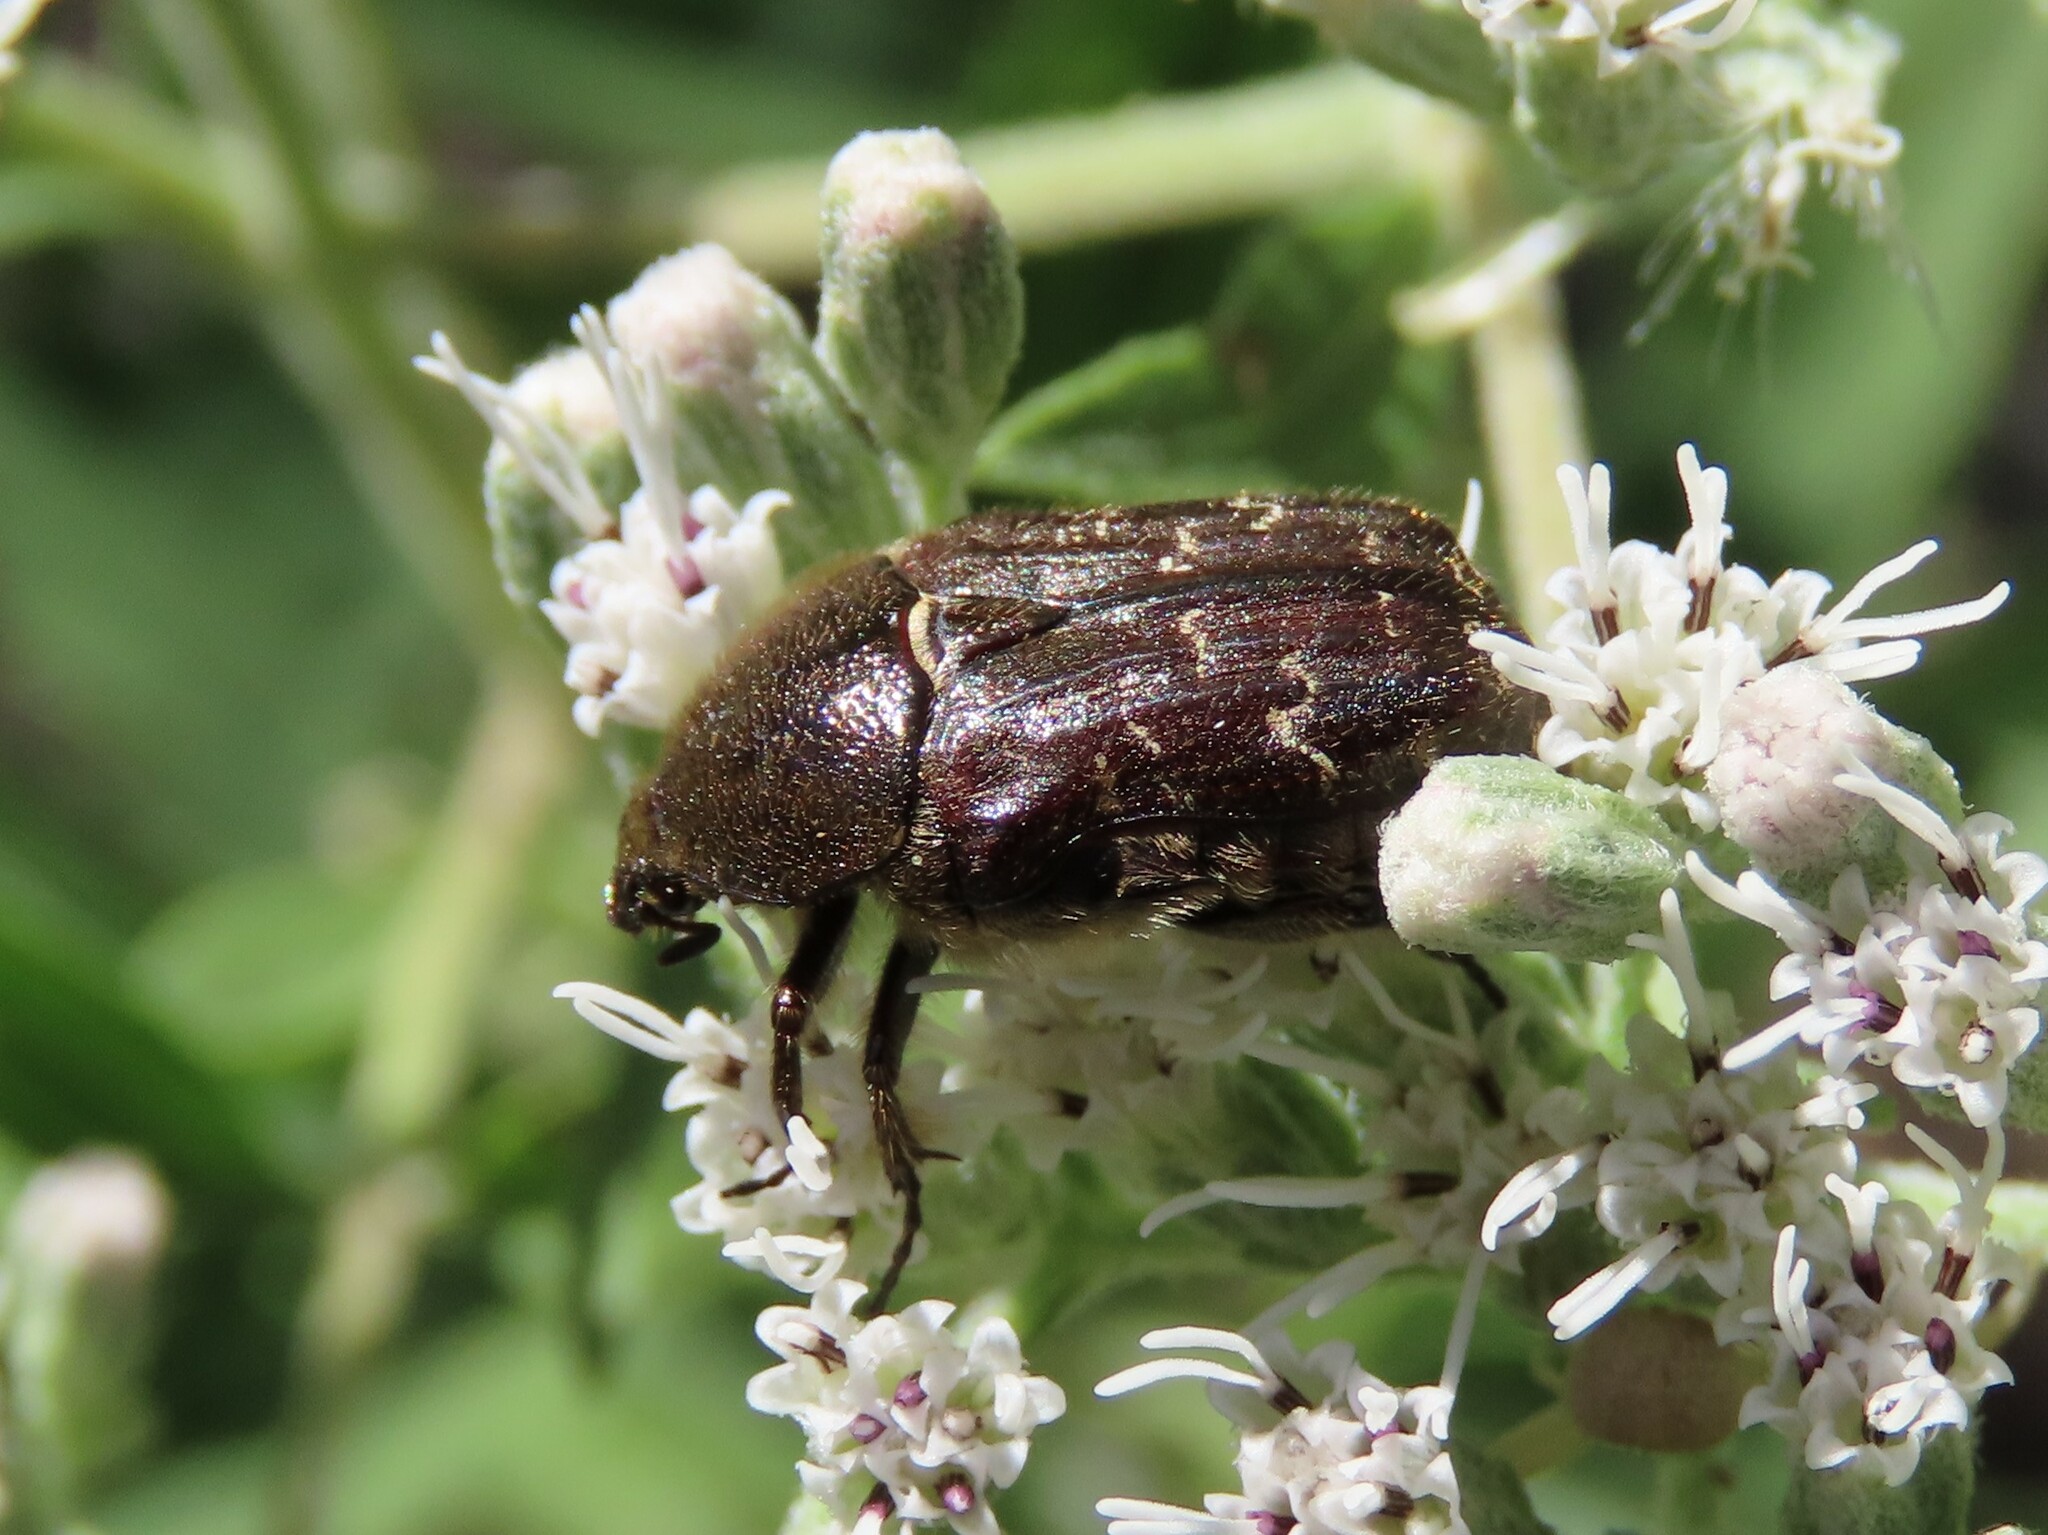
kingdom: Animalia
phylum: Arthropoda
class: Insecta
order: Coleoptera
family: Scarabaeidae
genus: Euphoria
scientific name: Euphoria sepulcralis
